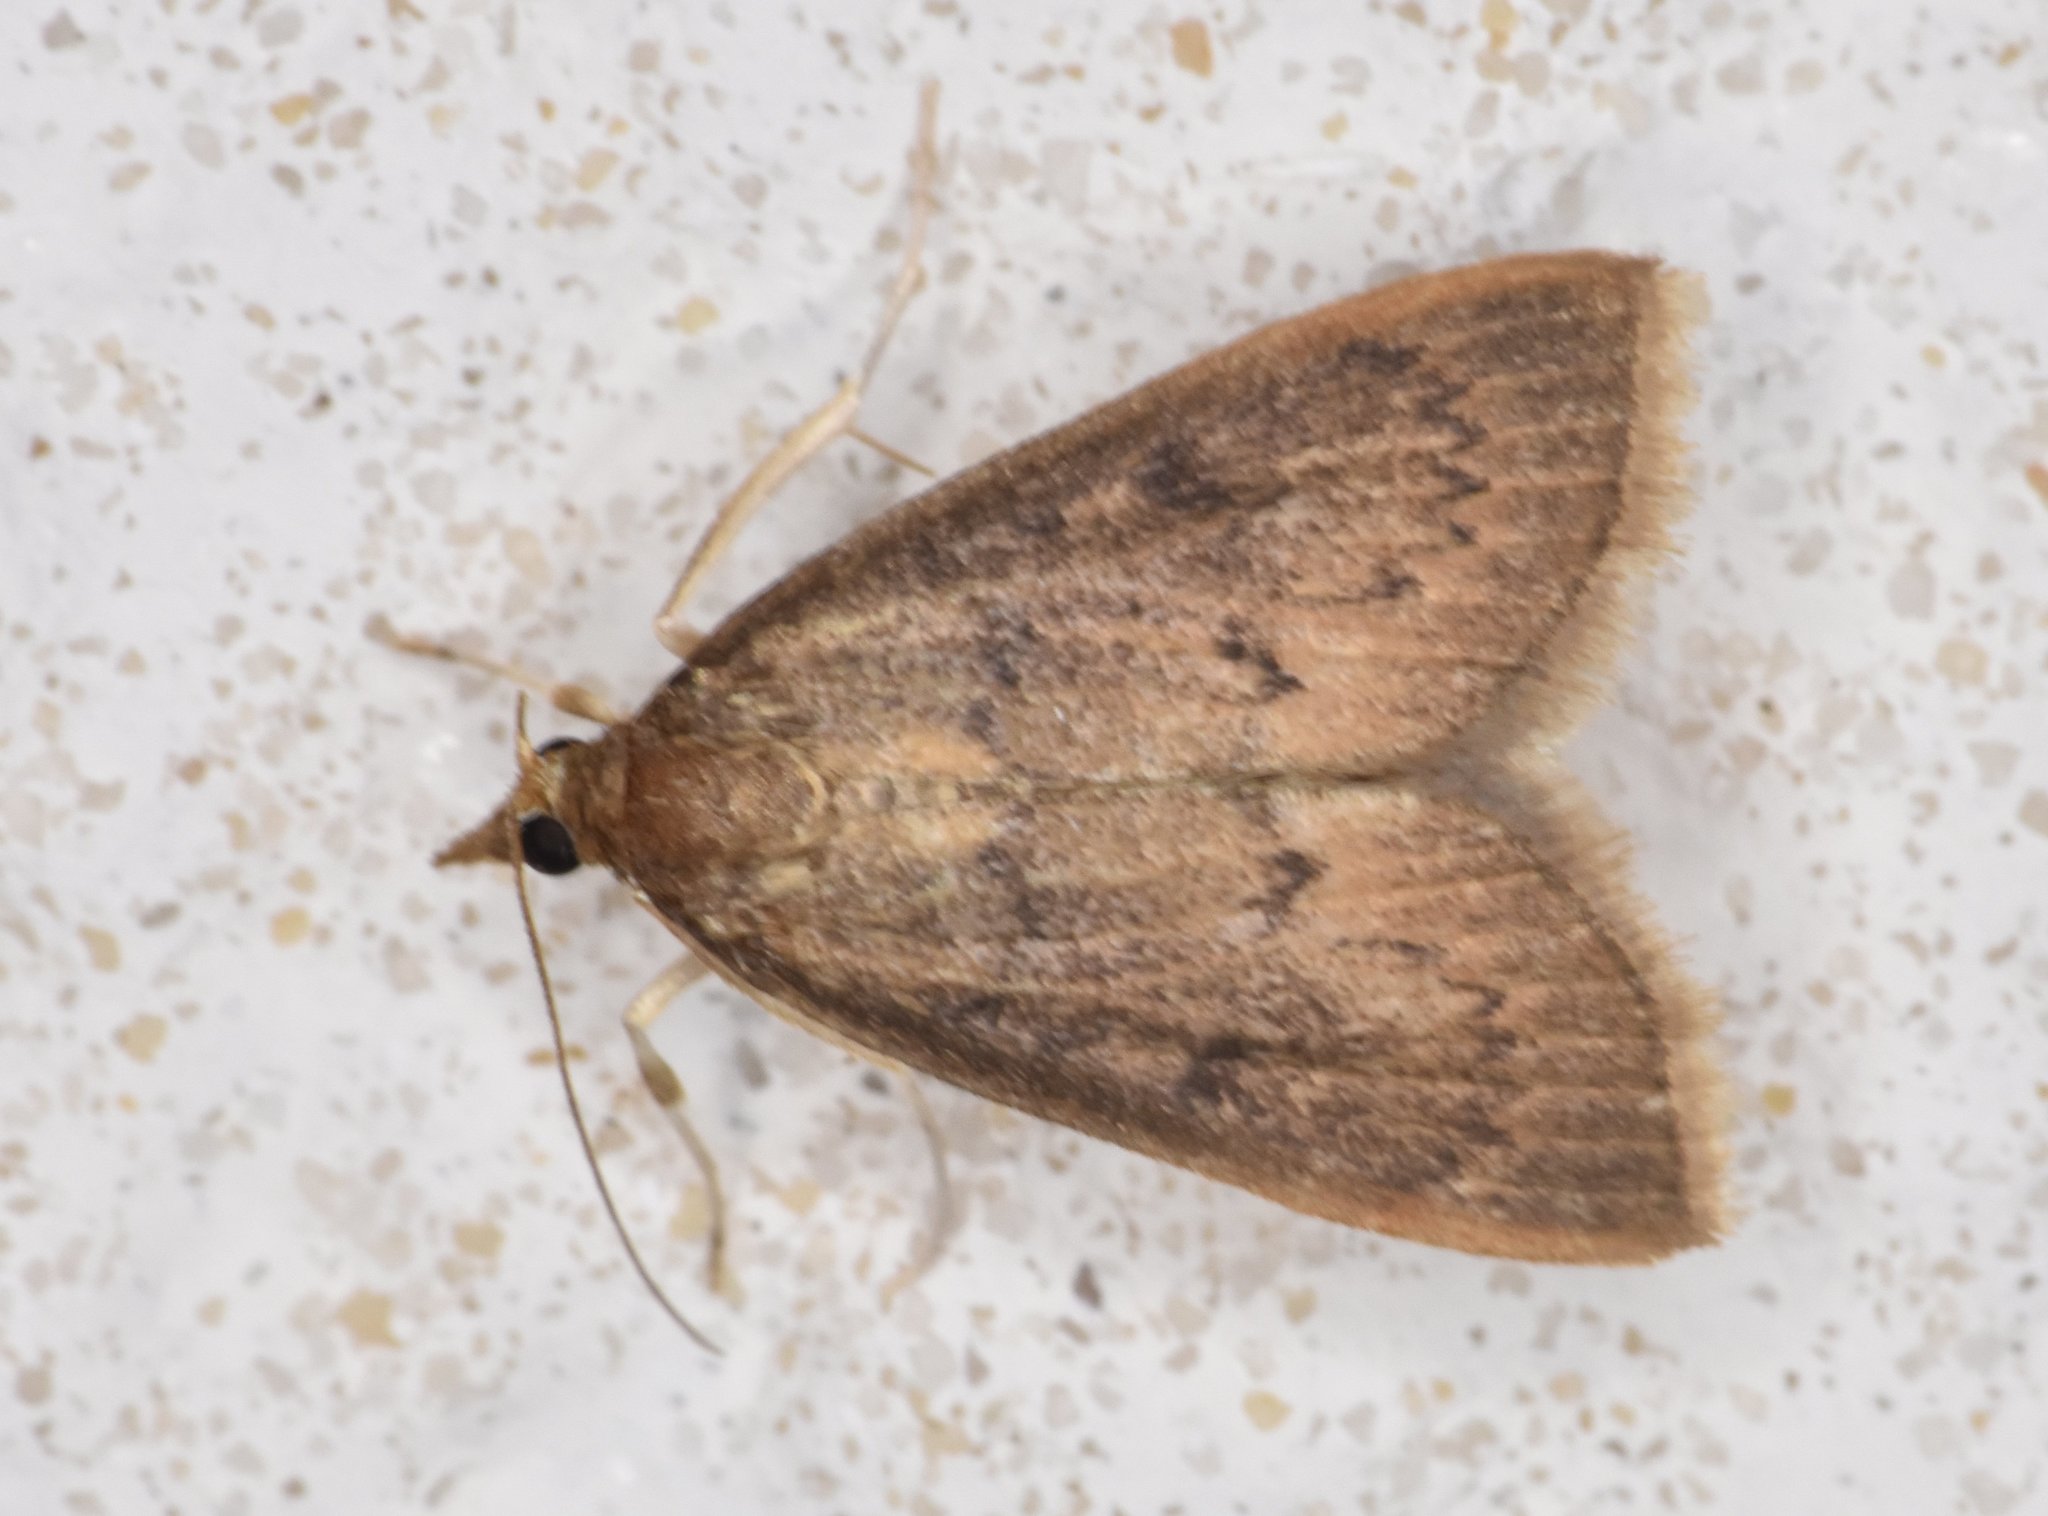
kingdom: Animalia
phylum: Arthropoda
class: Insecta
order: Lepidoptera
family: Crambidae
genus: Oenobotys
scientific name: Oenobotys vinotinctalis
